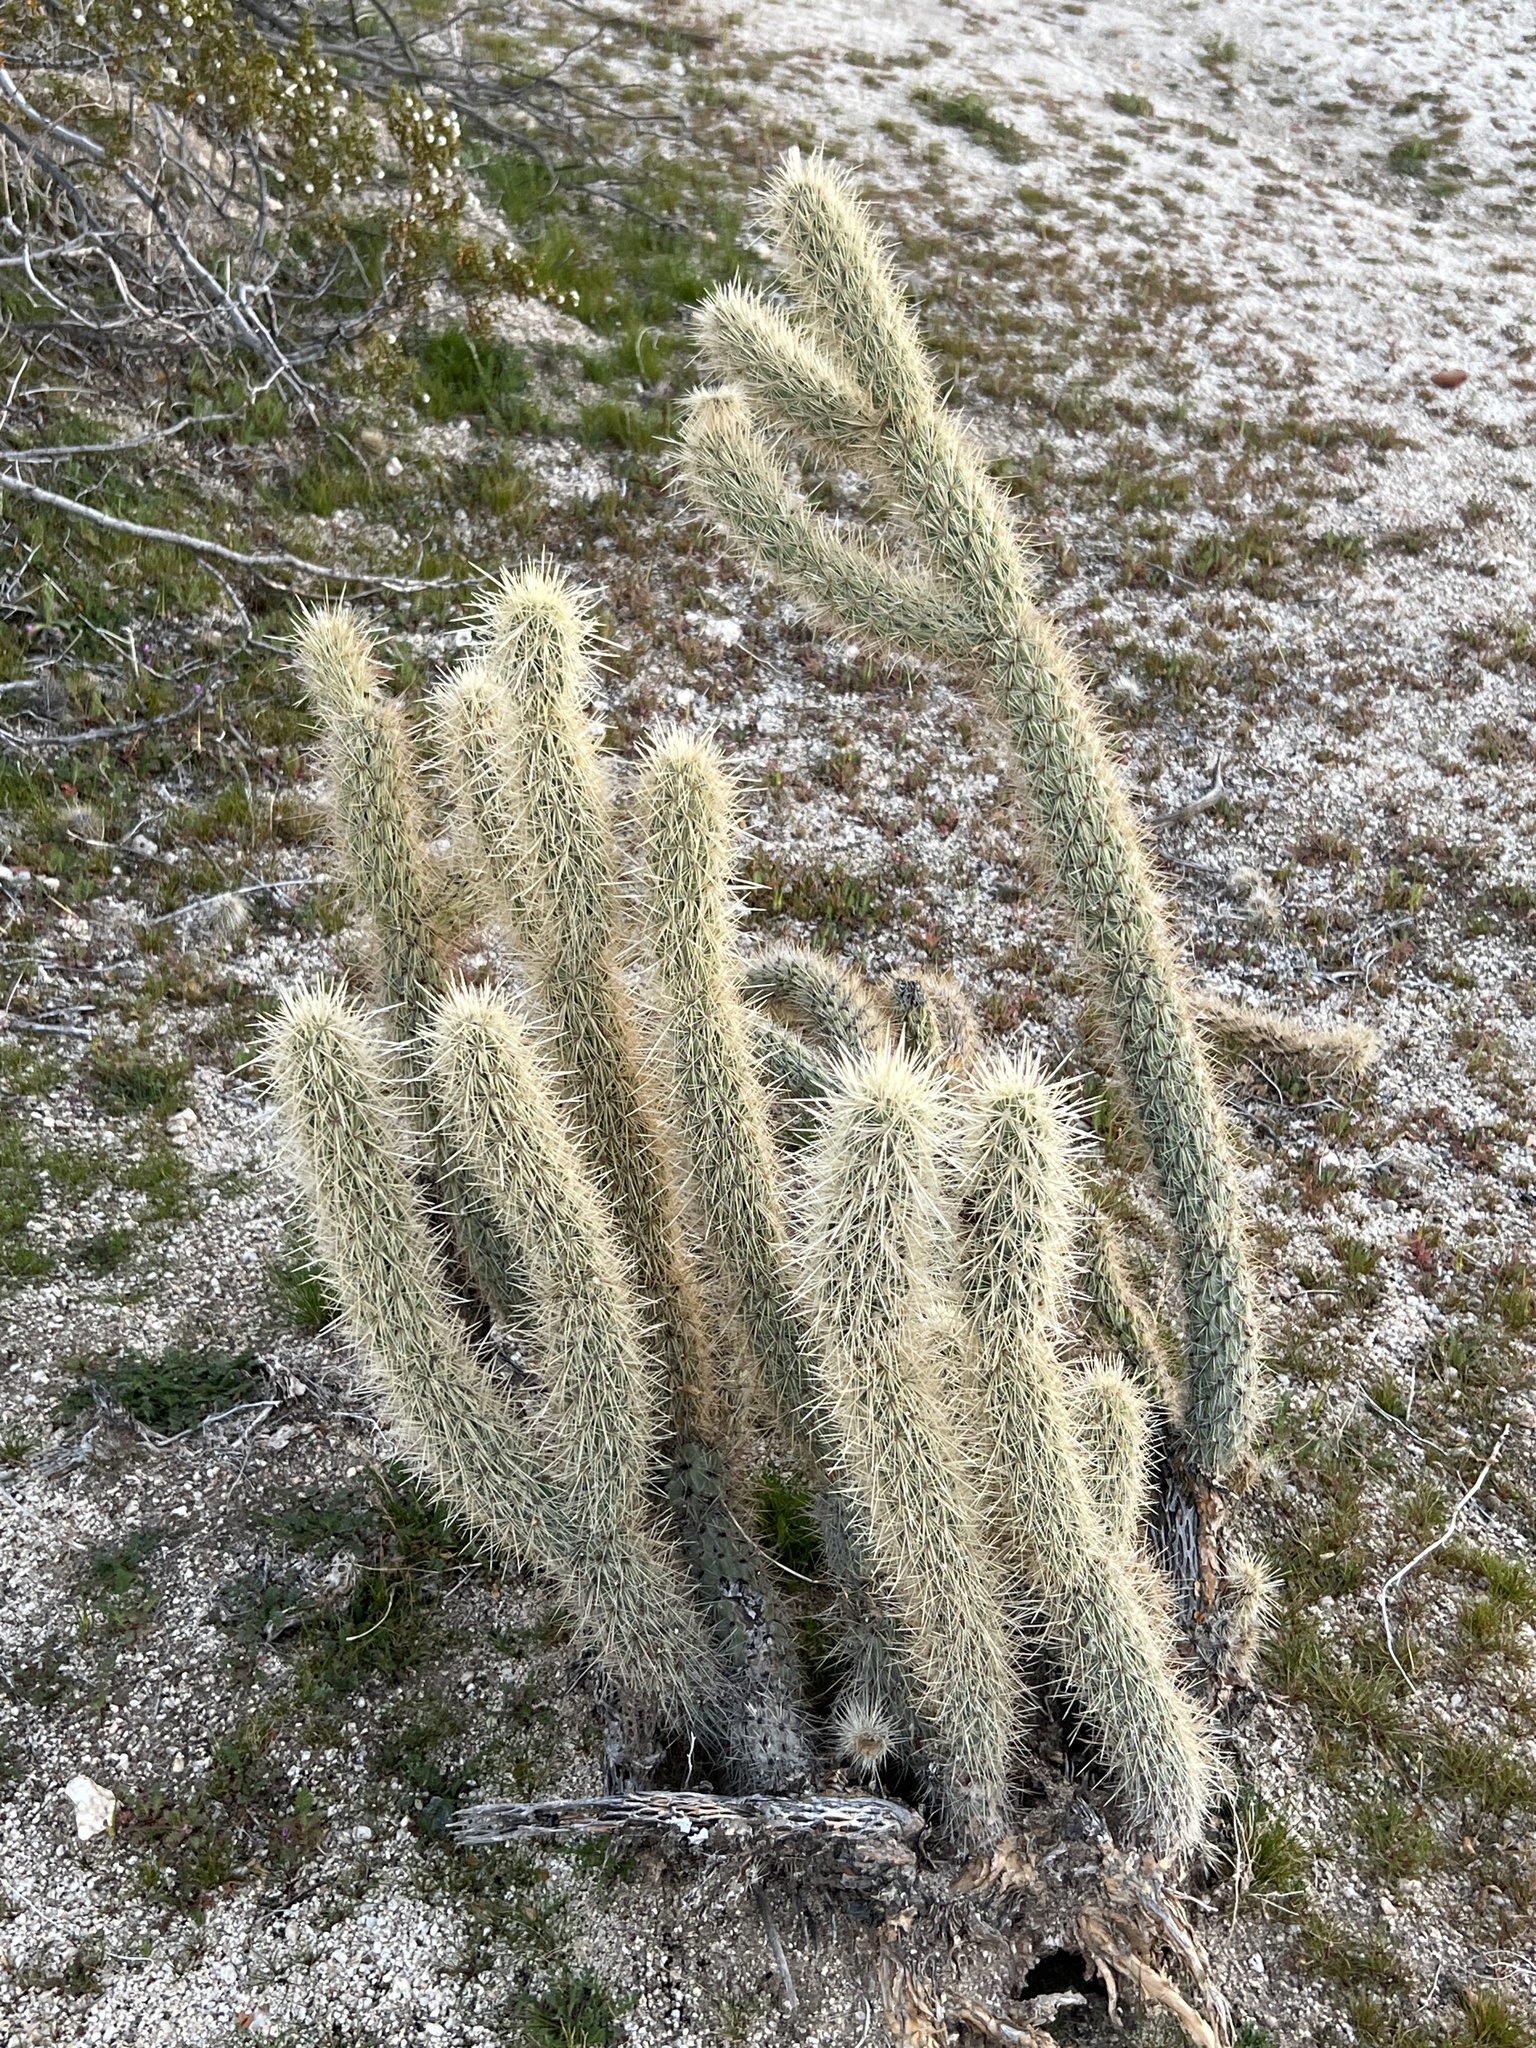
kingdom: Plantae
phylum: Tracheophyta
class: Magnoliopsida
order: Caryophyllales
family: Cactaceae
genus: Cylindropuntia
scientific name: Cylindropuntia ganderi
